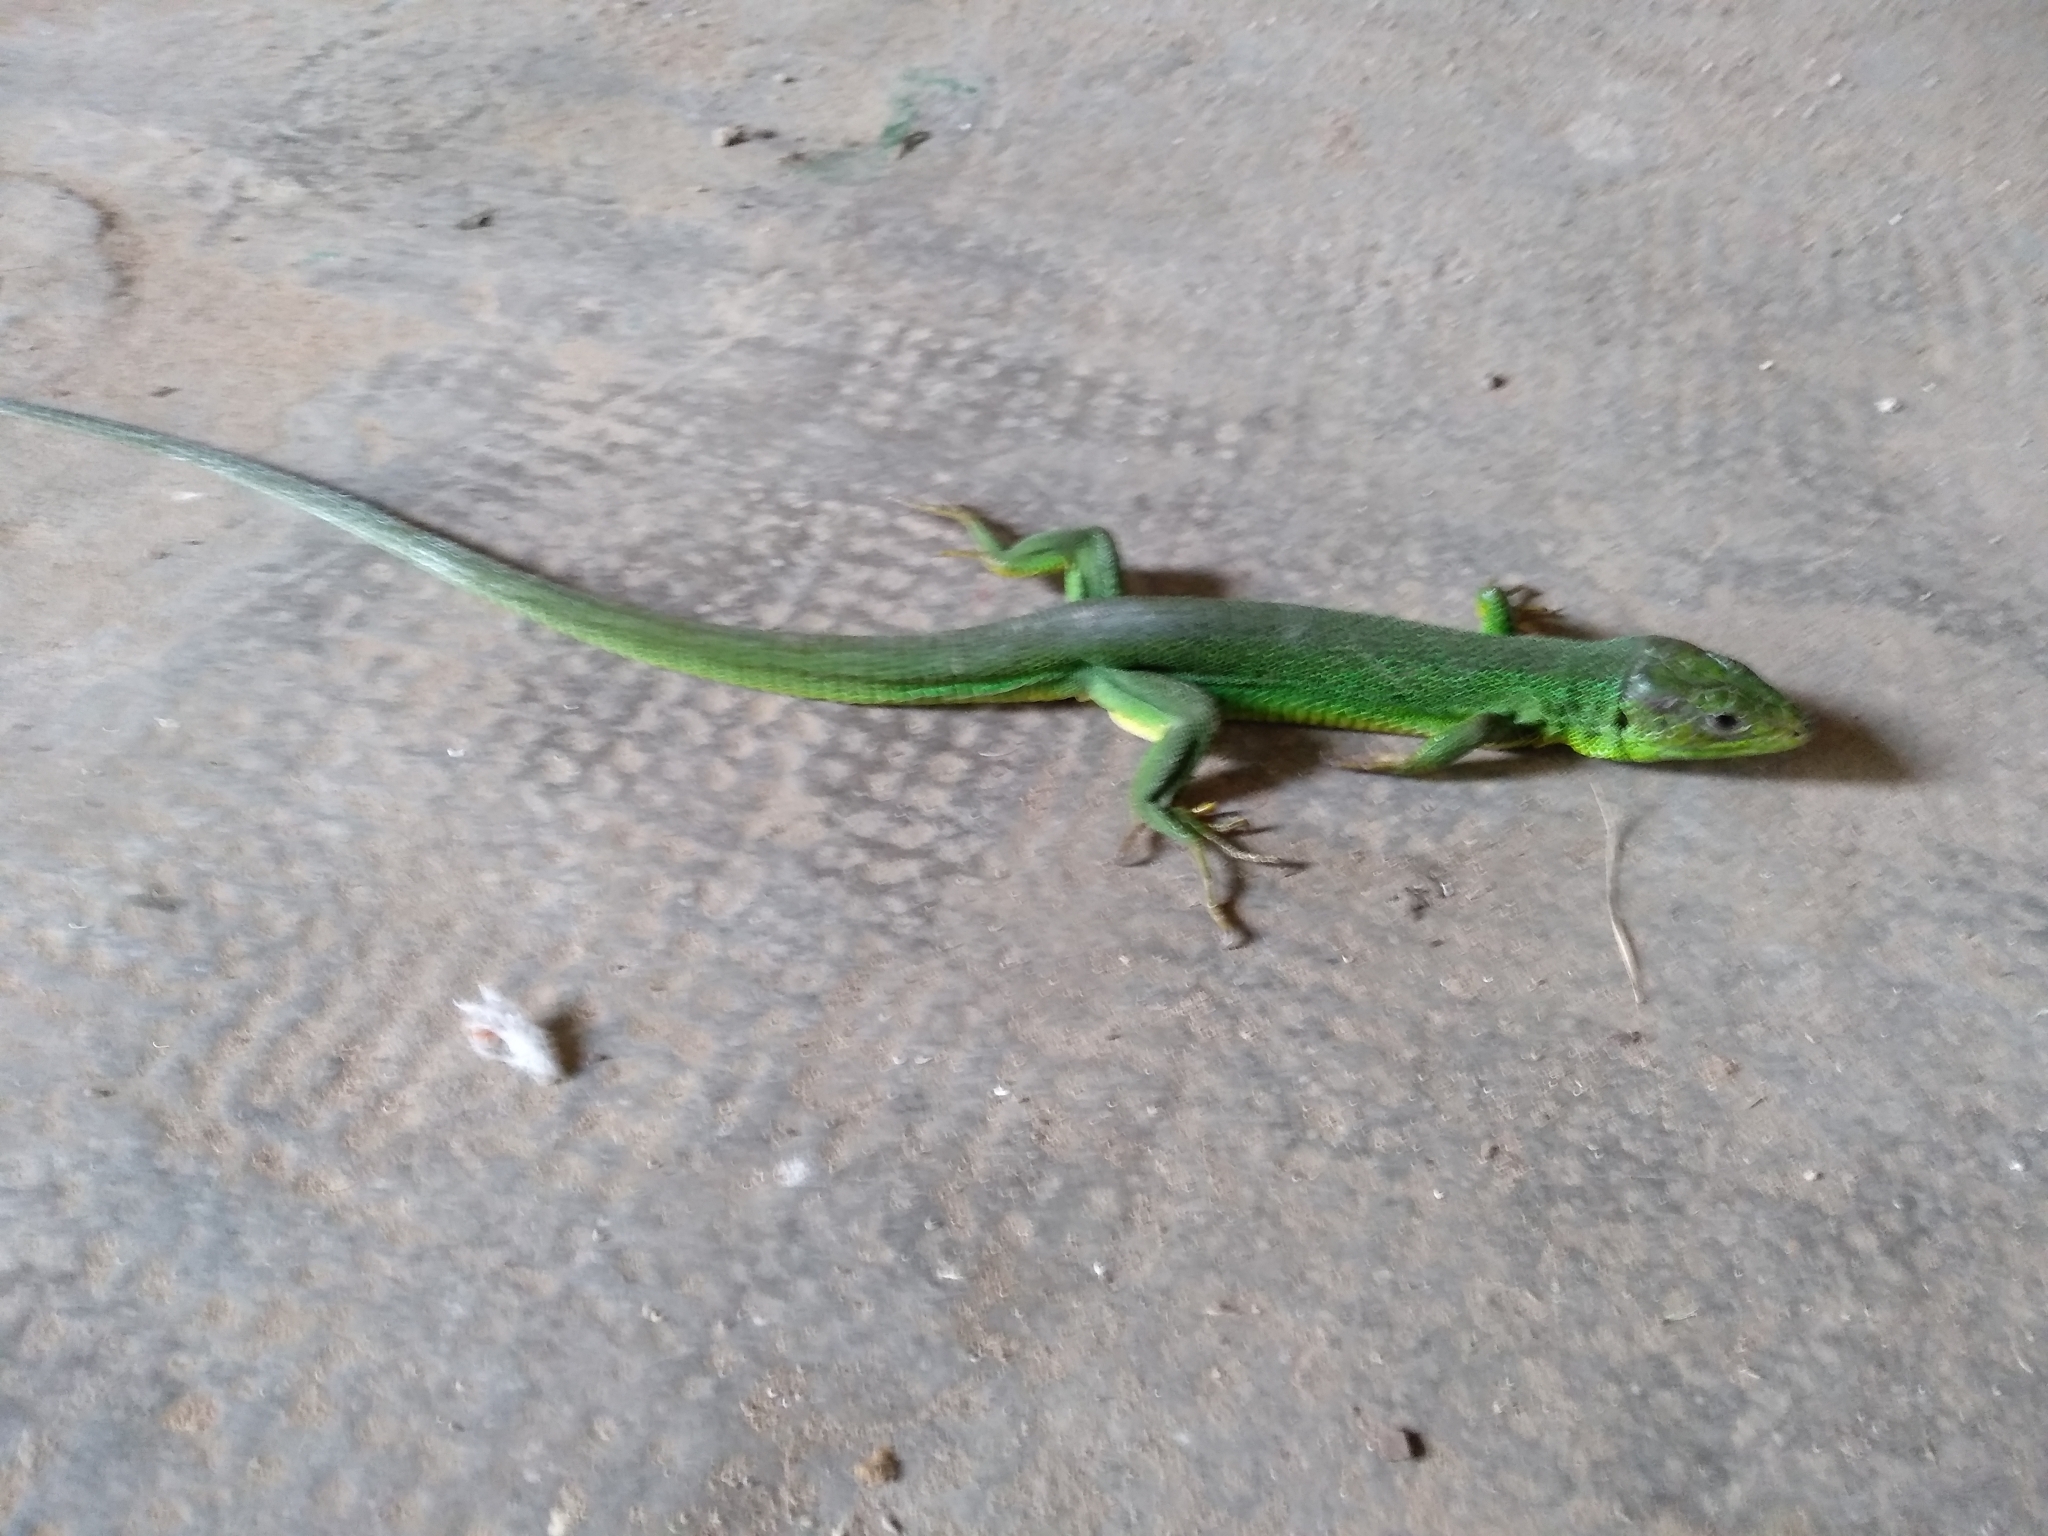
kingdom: Animalia
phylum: Chordata
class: Squamata
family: Lacertidae
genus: Lacerta
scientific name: Lacerta bilineata
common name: Western green lizard
